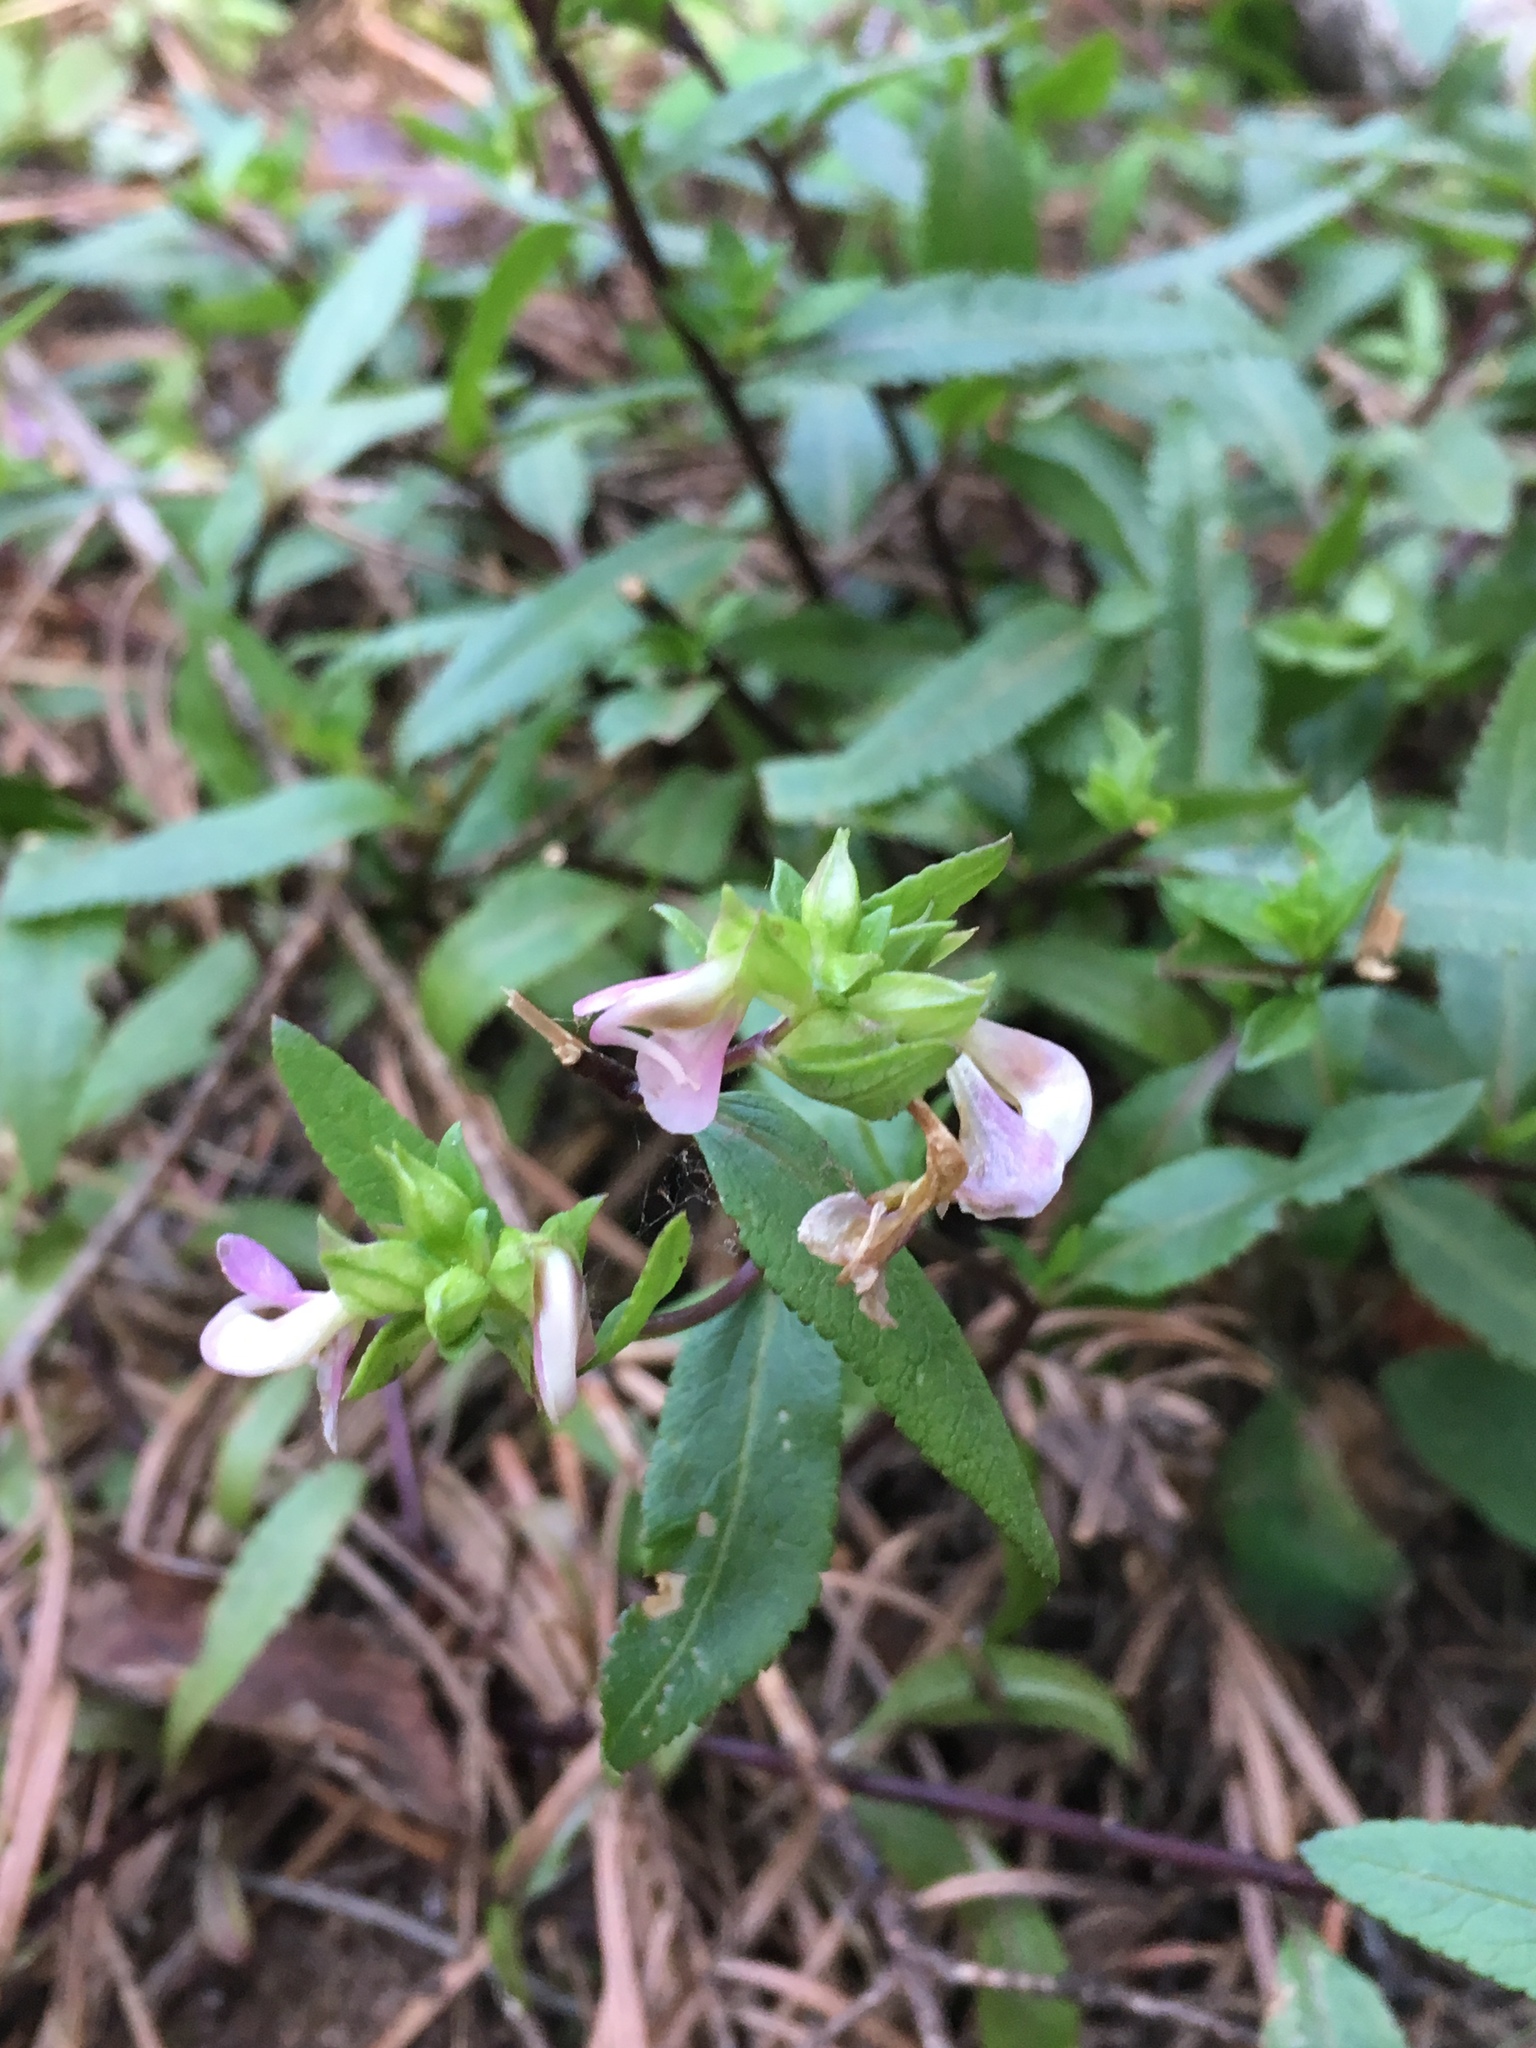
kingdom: Plantae
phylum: Tracheophyta
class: Magnoliopsida
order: Lamiales
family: Orobanchaceae
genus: Pedicularis
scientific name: Pedicularis racemosa
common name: Leafy lousewort
